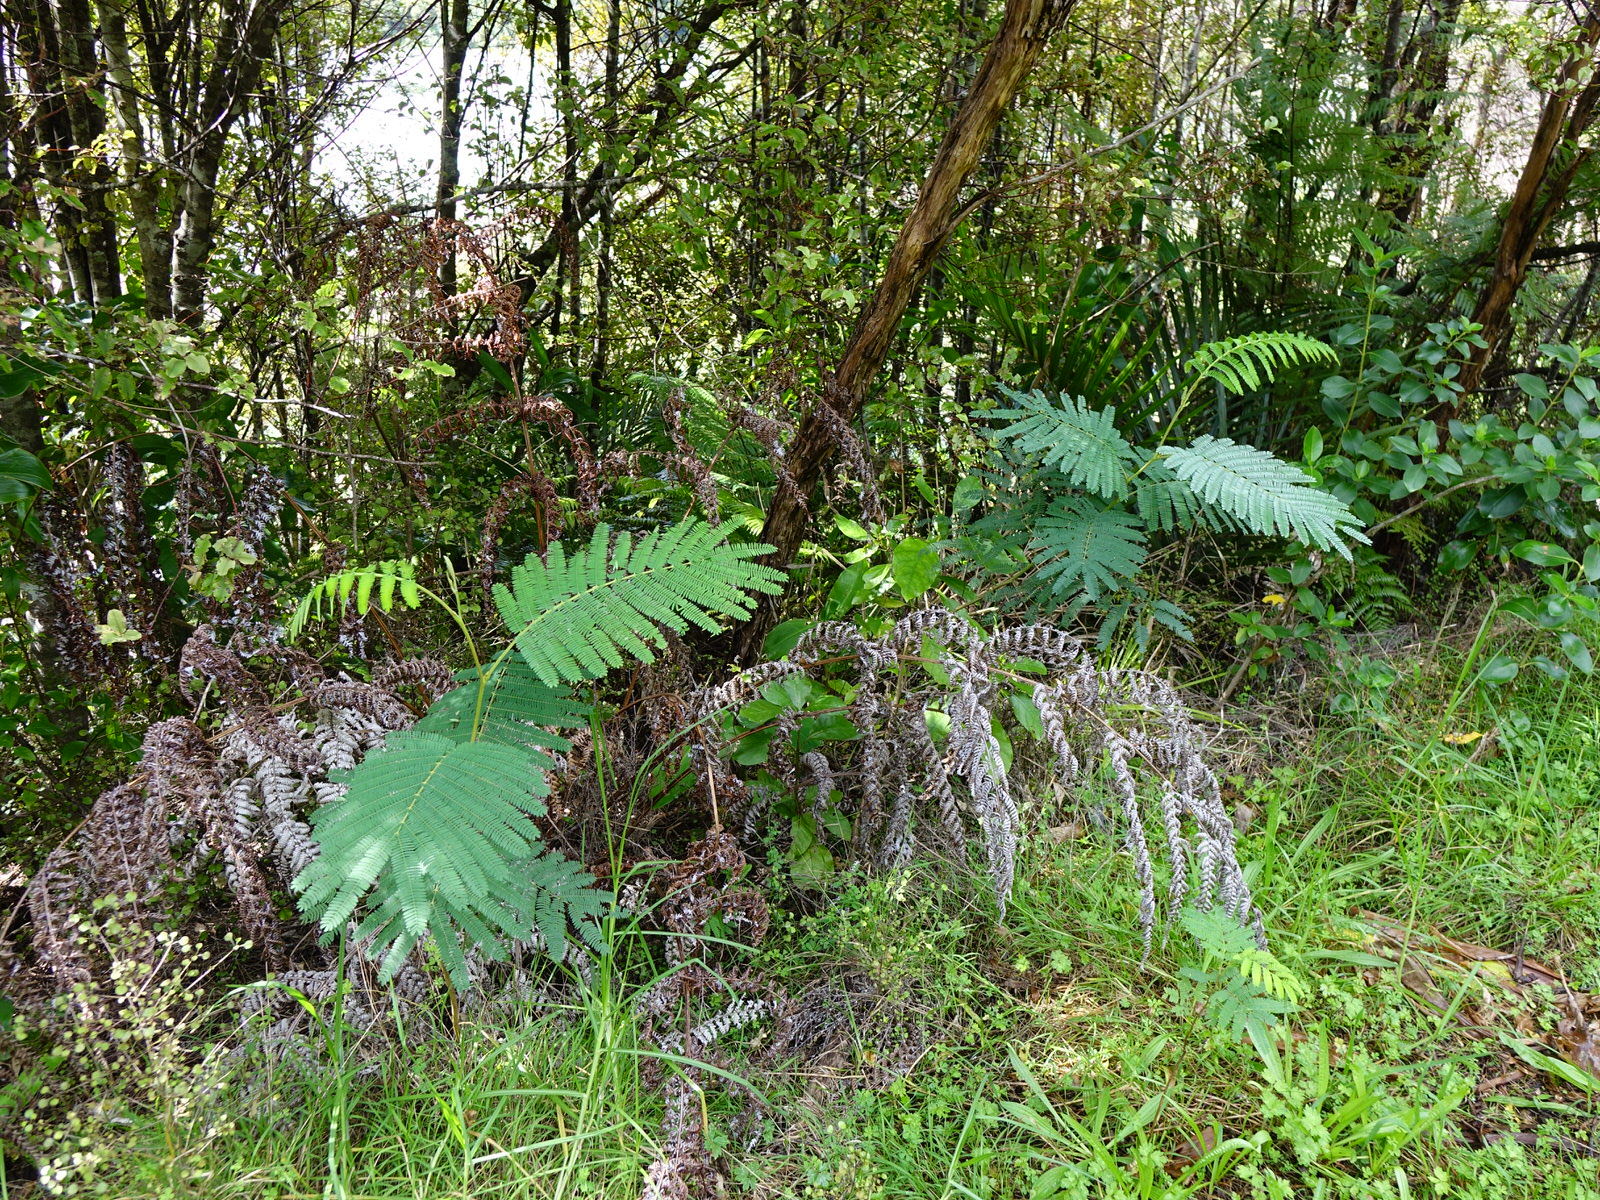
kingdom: Plantae
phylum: Tracheophyta
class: Magnoliopsida
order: Fabales
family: Fabaceae
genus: Paraserianthes
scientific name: Paraserianthes lophantha
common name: Plume albizia
